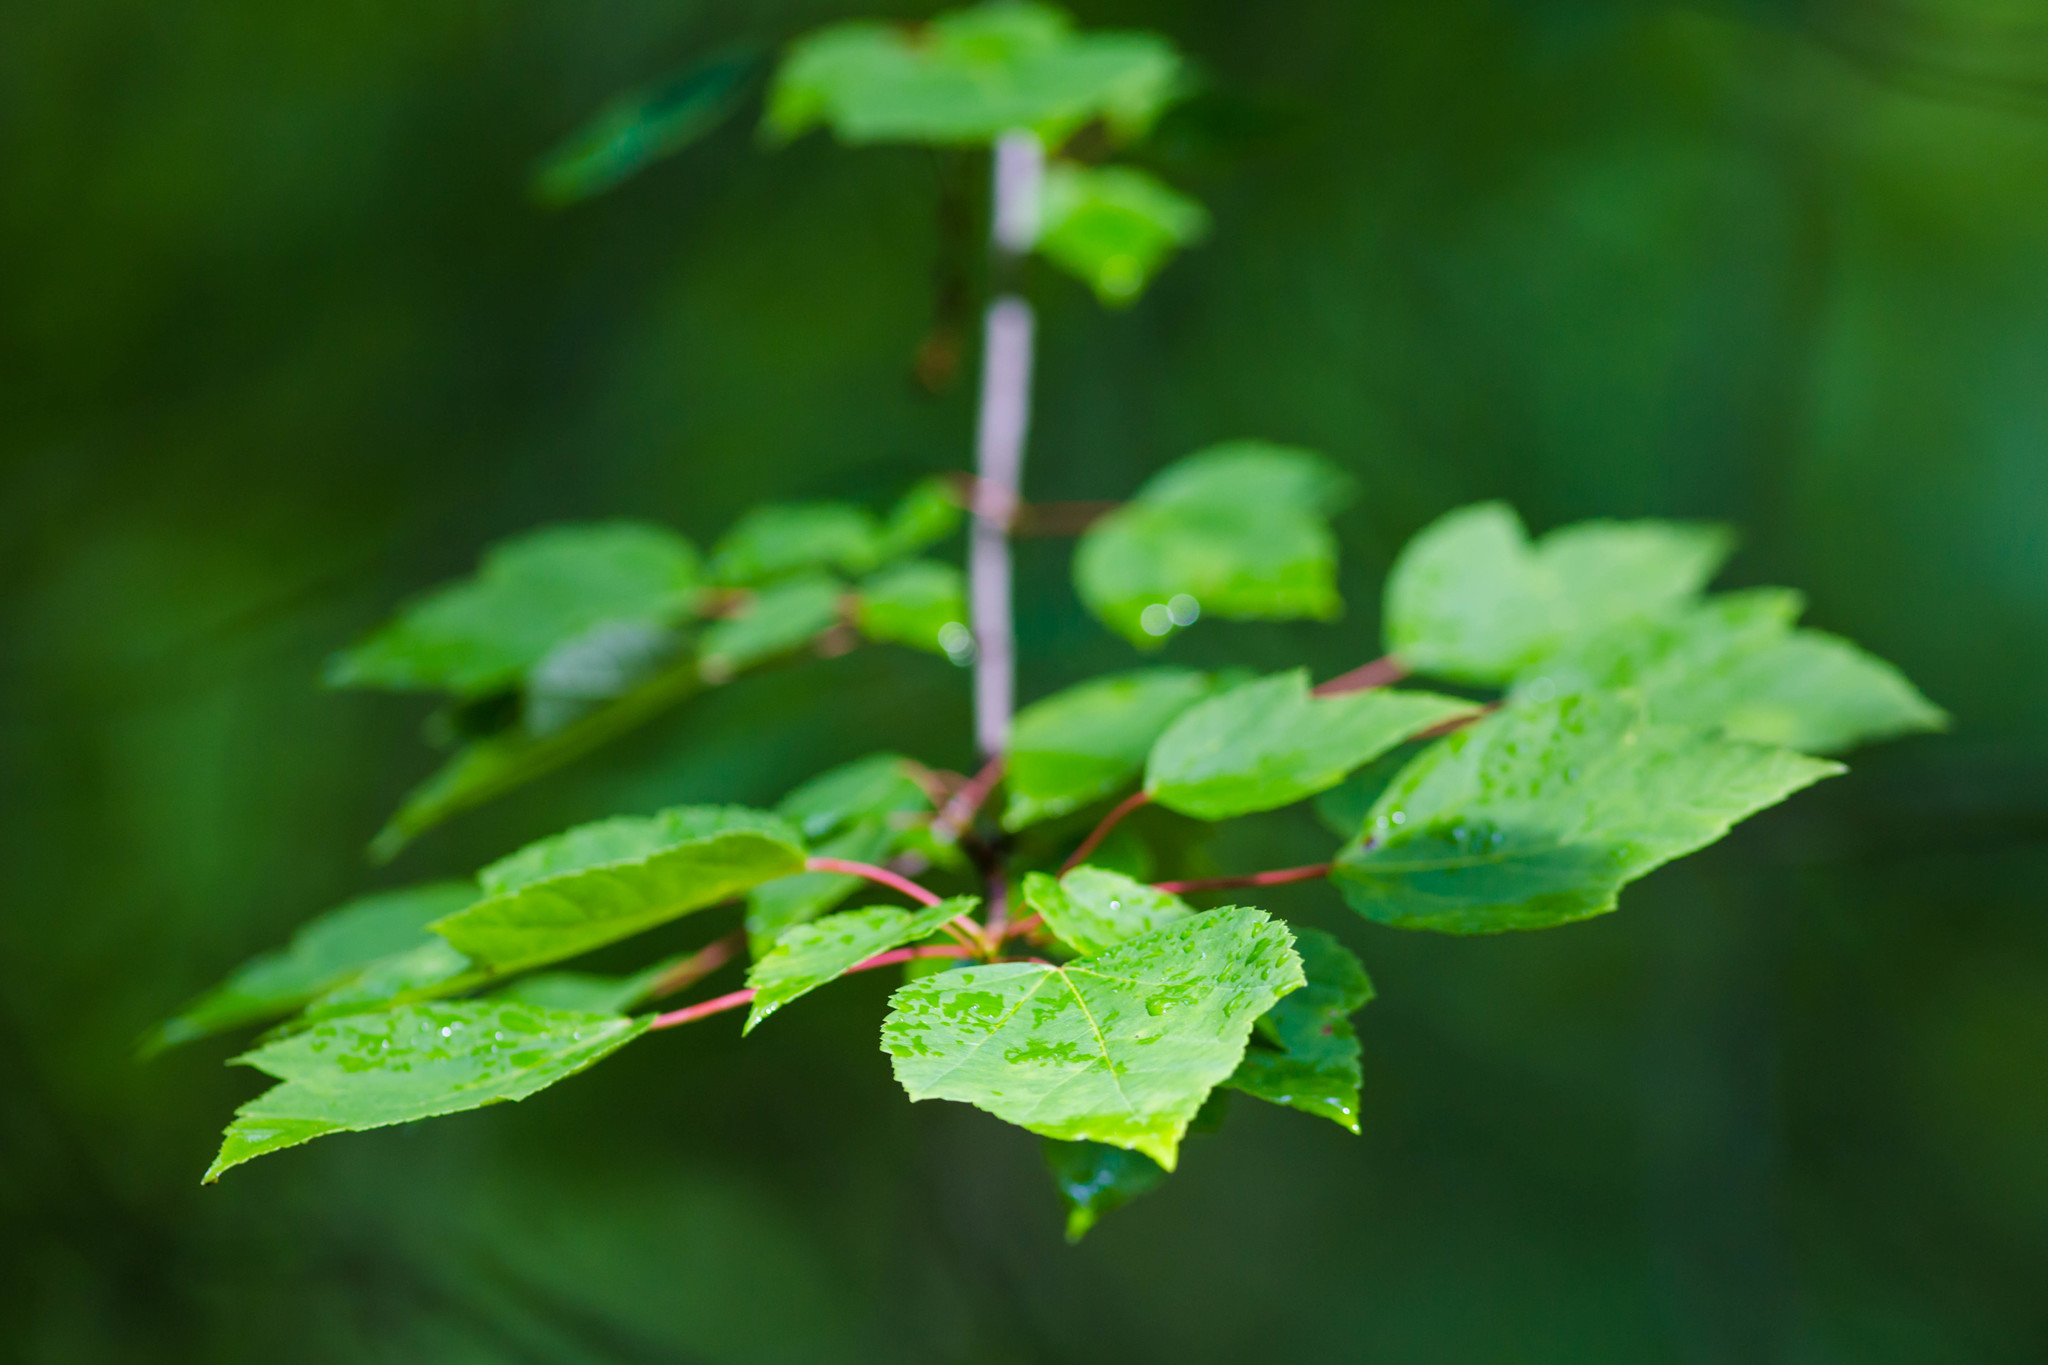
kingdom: Plantae
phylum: Tracheophyta
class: Magnoliopsida
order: Sapindales
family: Sapindaceae
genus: Acer
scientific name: Acer rubrum
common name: Red maple
